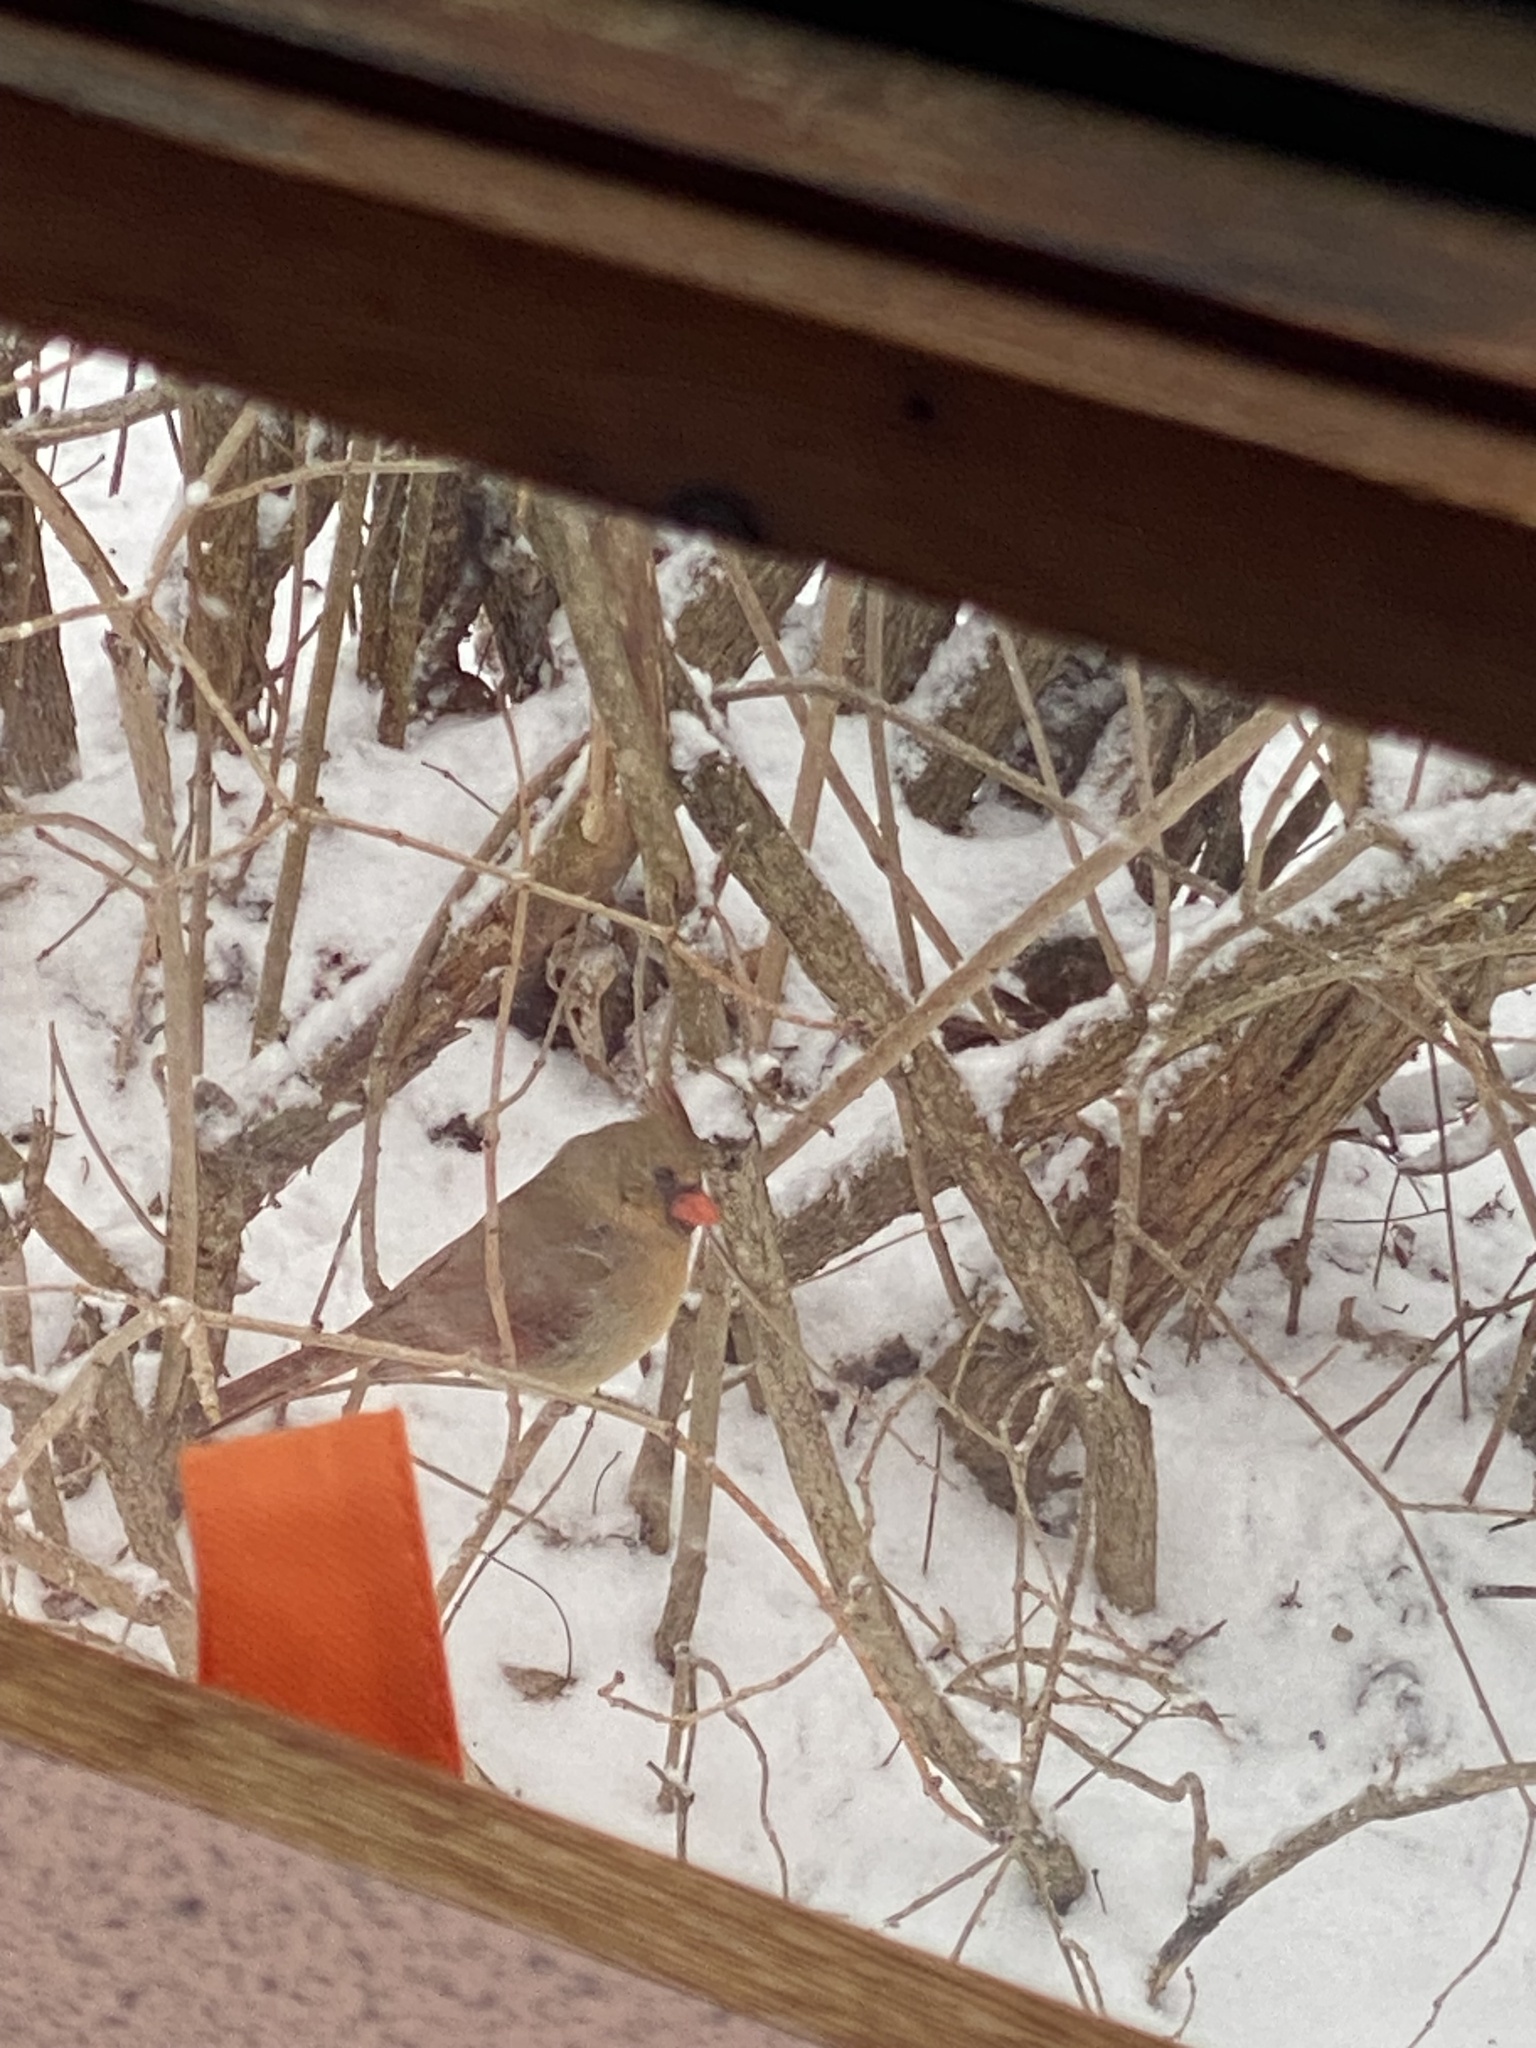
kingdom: Animalia
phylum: Chordata
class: Aves
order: Passeriformes
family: Cardinalidae
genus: Cardinalis
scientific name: Cardinalis cardinalis
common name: Northern cardinal
